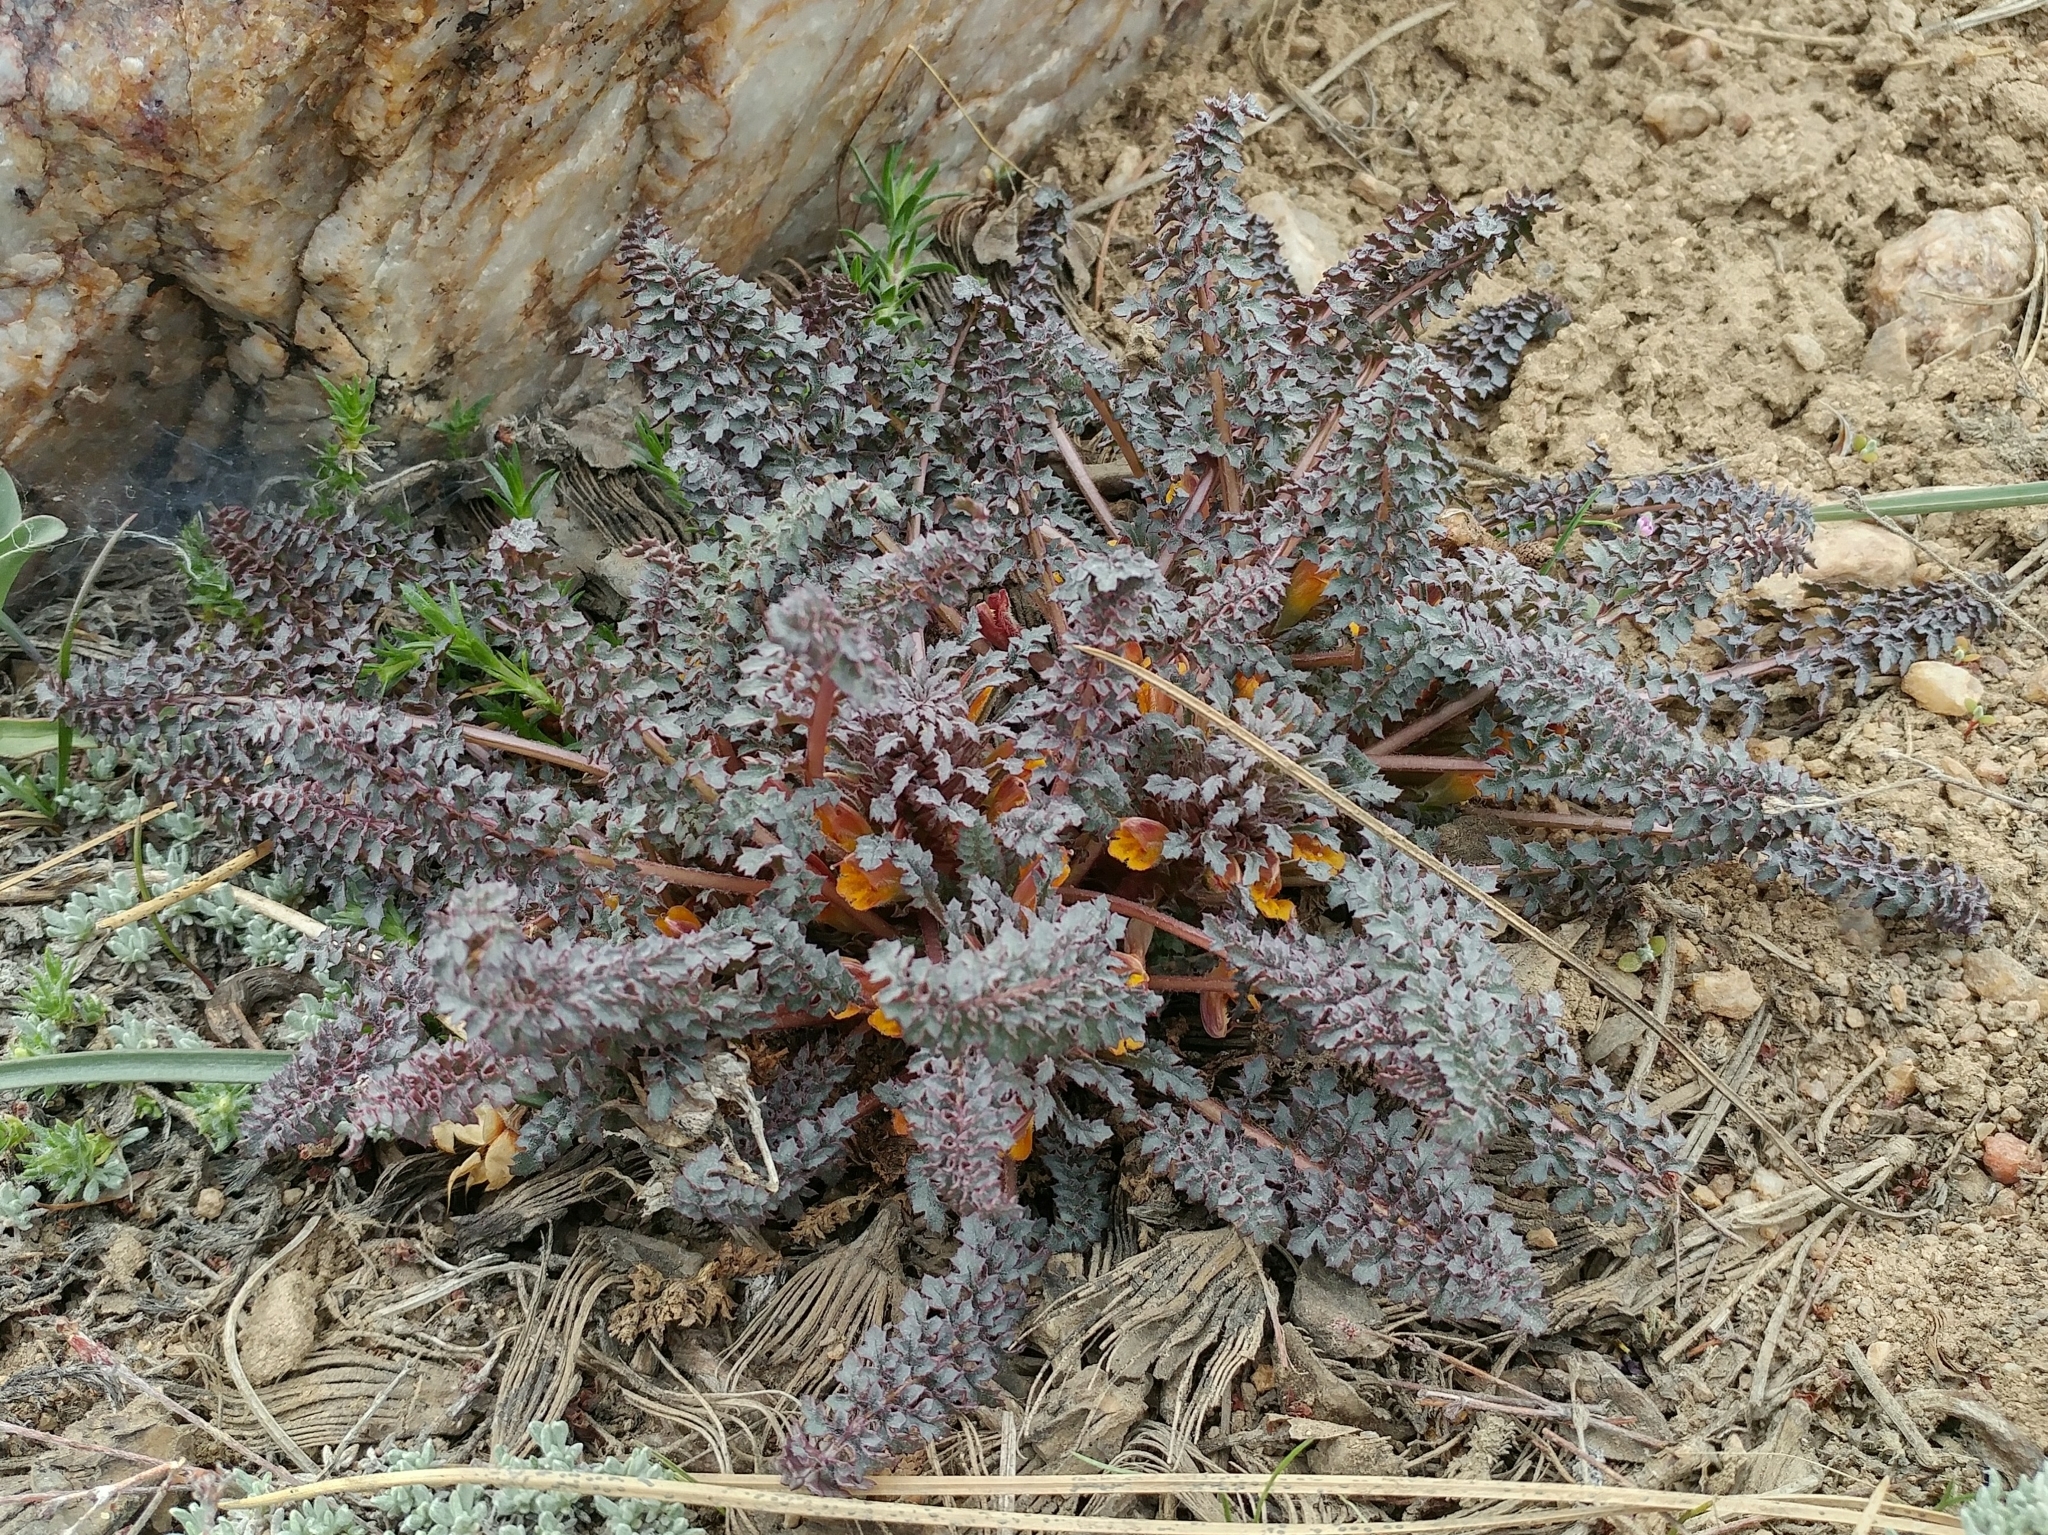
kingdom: Plantae
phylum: Tracheophyta
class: Magnoliopsida
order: Lamiales
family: Orobanchaceae
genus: Pedicularis
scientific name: Pedicularis semibarbata
